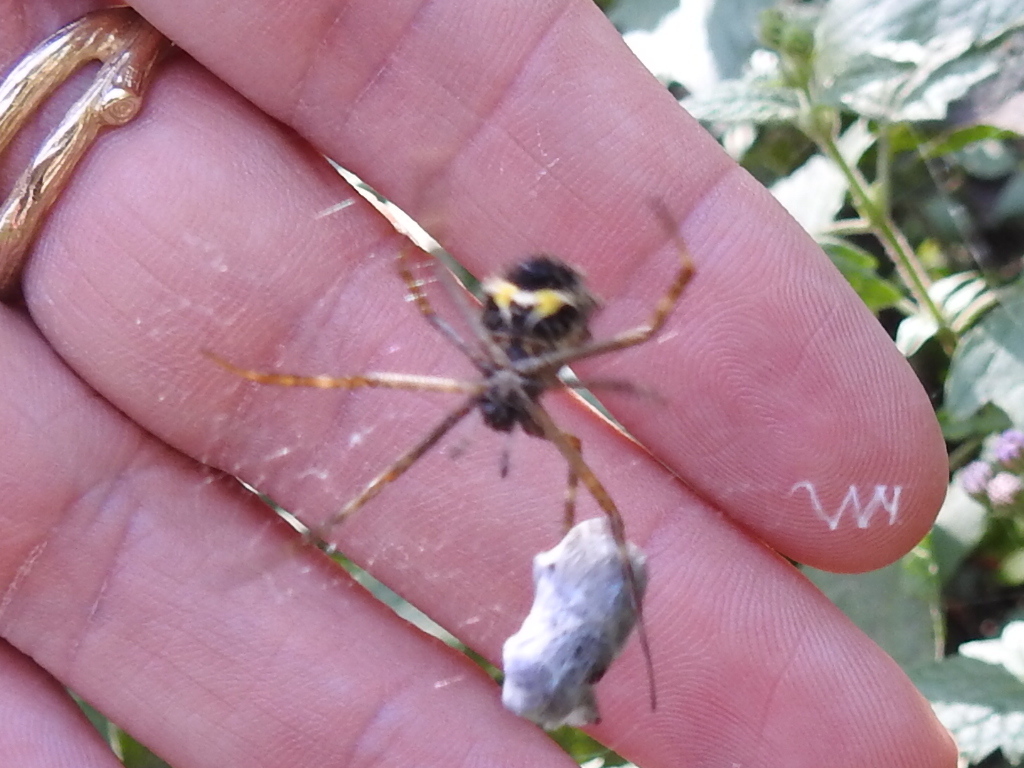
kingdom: Animalia
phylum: Arthropoda
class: Arachnida
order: Araneae
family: Araneidae
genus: Argiope
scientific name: Argiope argentata
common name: Orb weavers
